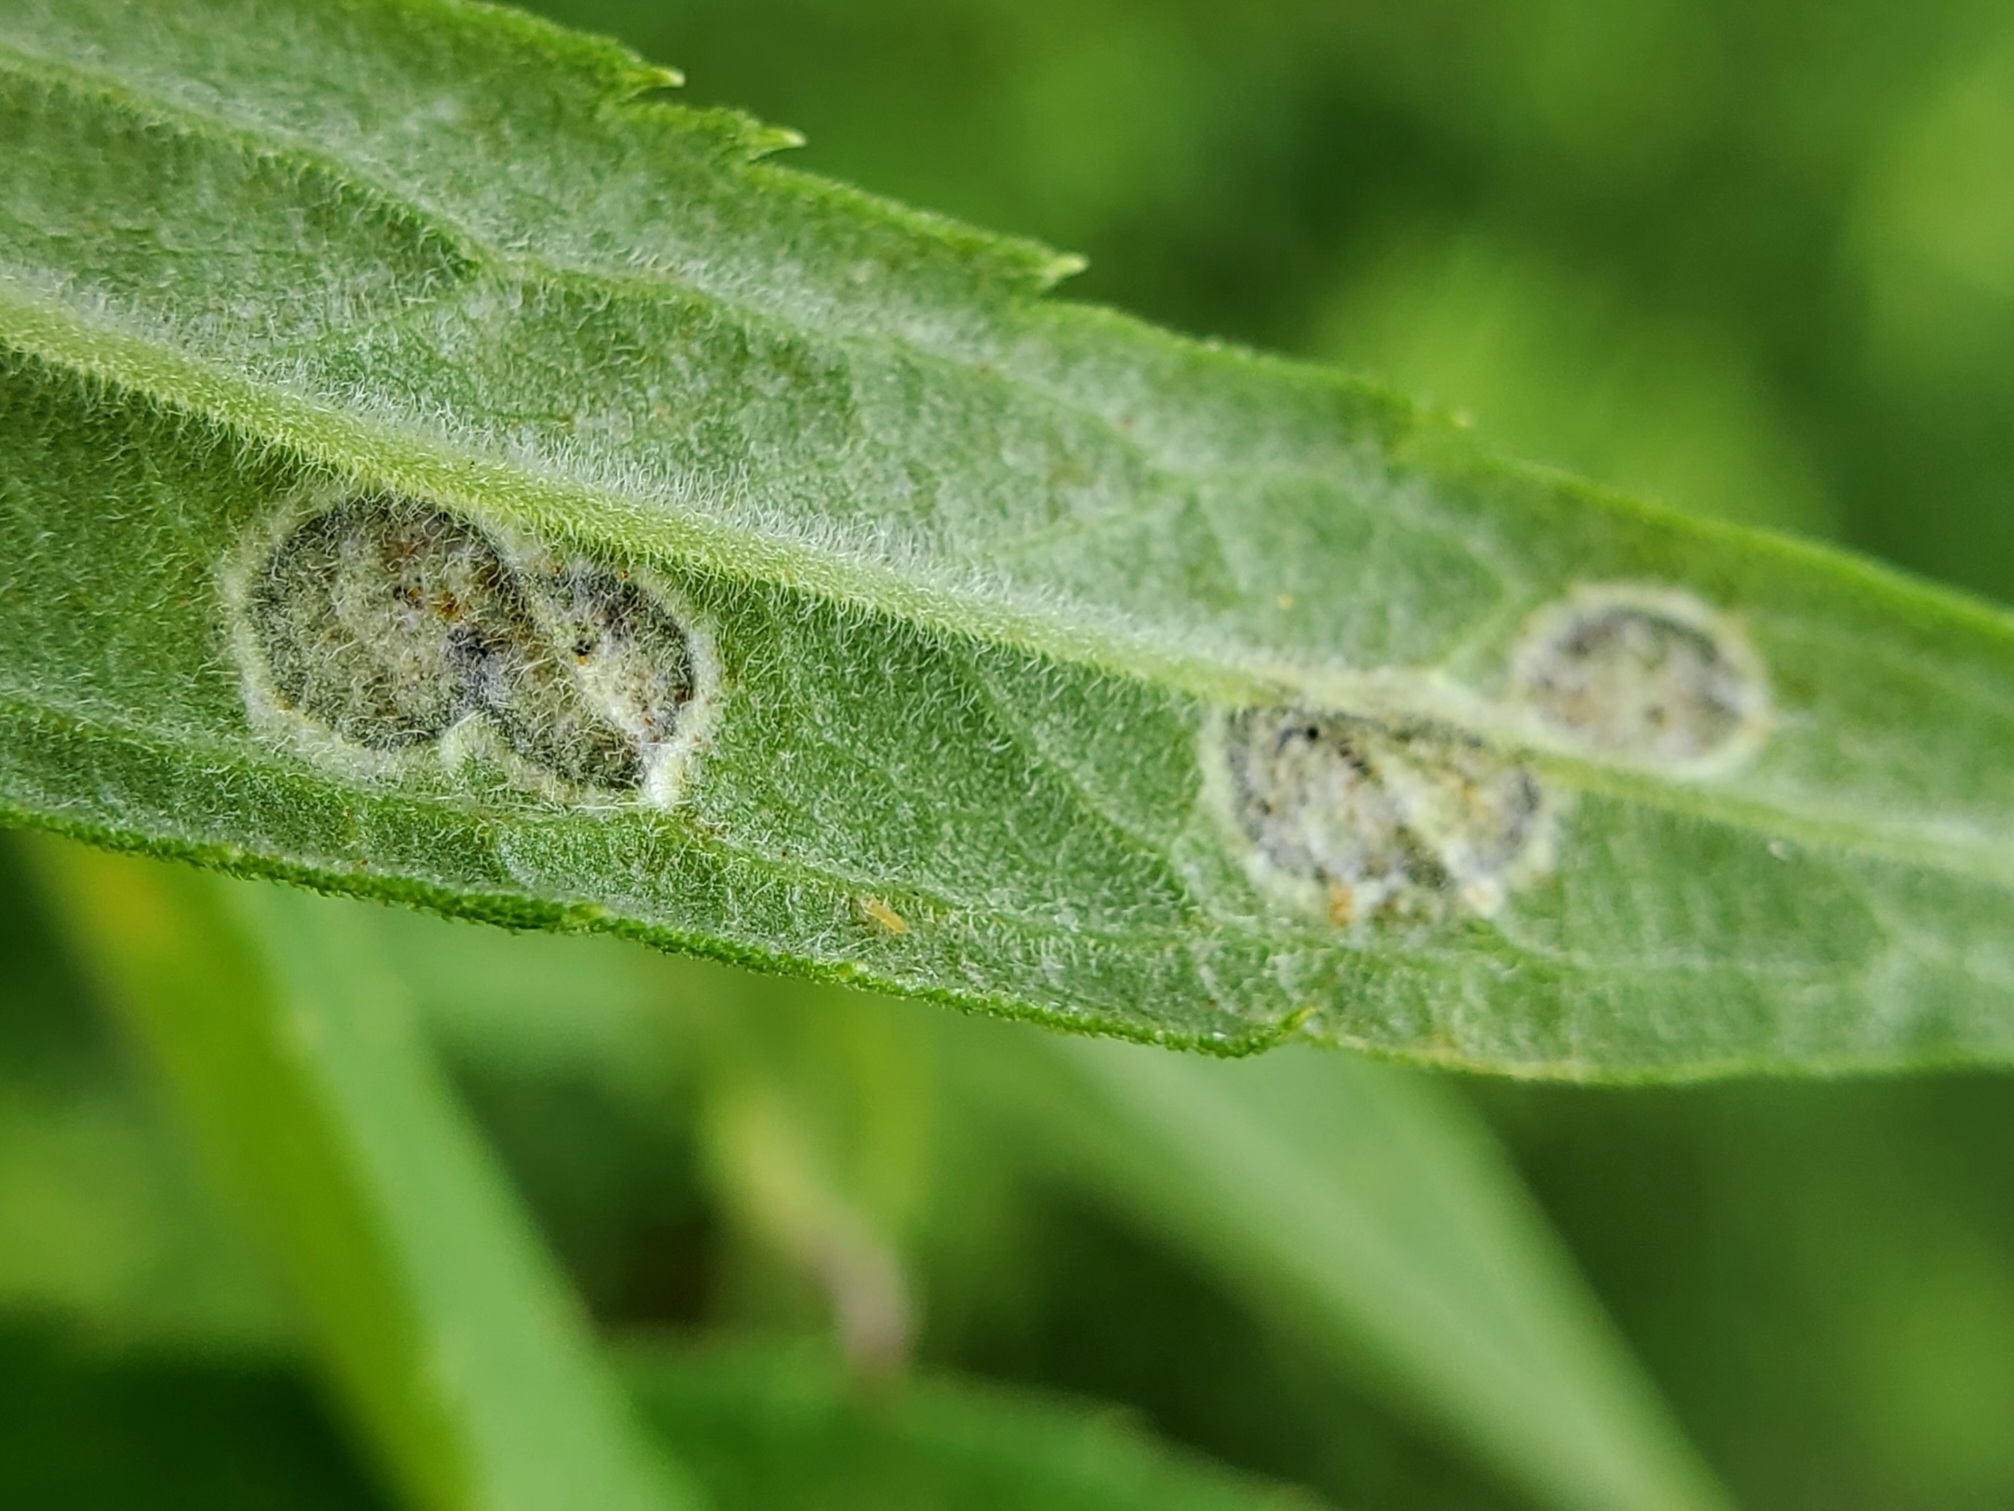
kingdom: Animalia
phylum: Arthropoda
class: Insecta
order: Diptera
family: Cecidomyiidae
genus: Asteromyia
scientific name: Asteromyia carbonifera
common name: Carbonifera goldenrod gall midge
